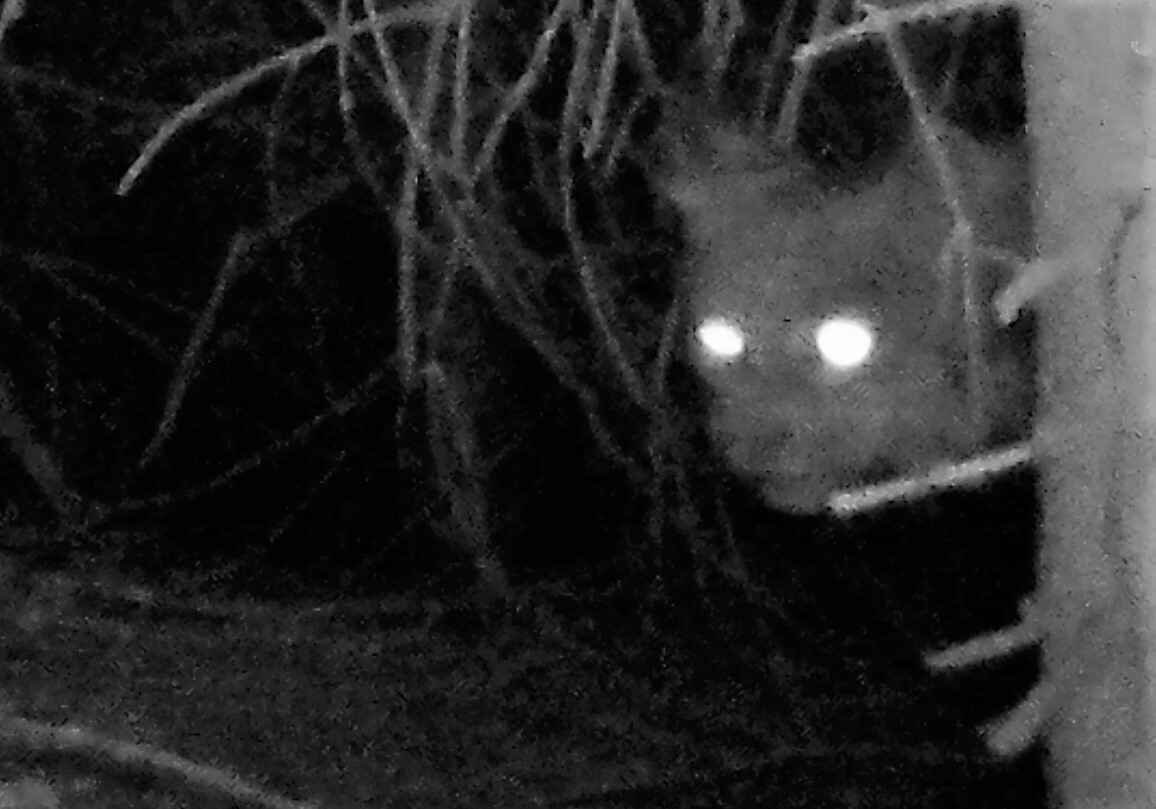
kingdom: Animalia
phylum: Chordata
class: Mammalia
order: Carnivora
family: Felidae
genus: Lynx
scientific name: Lynx canadensis
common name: Canadian lynx
